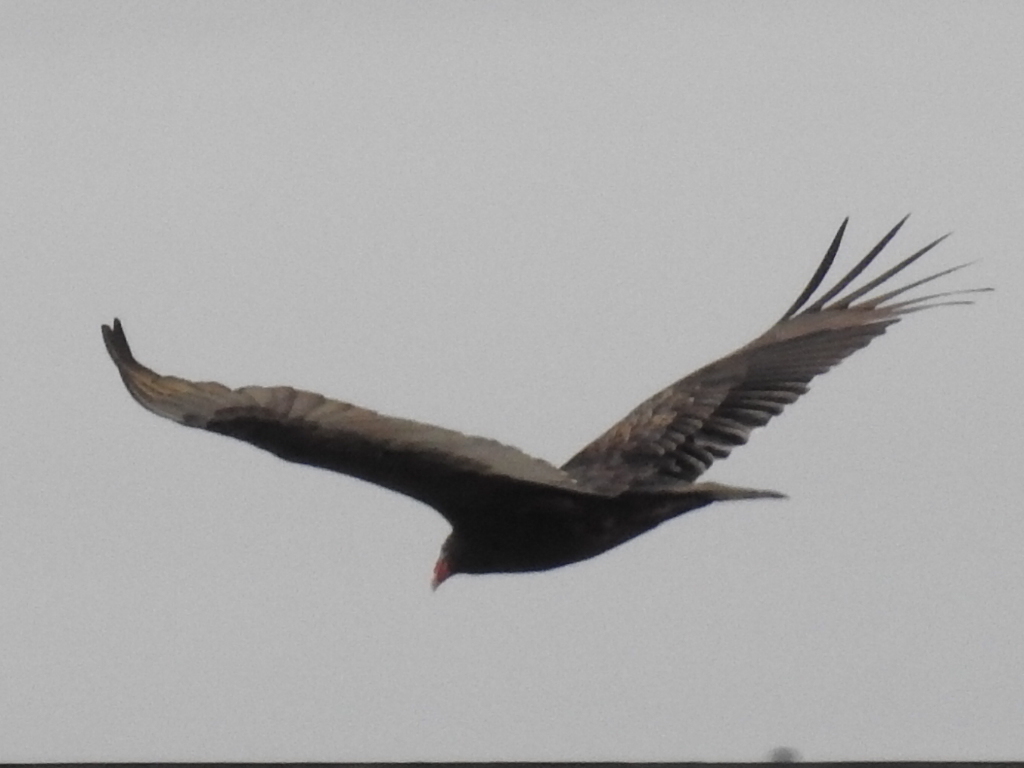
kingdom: Animalia
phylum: Chordata
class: Aves
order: Accipitriformes
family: Cathartidae
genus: Cathartes
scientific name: Cathartes aura
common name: Turkey vulture
